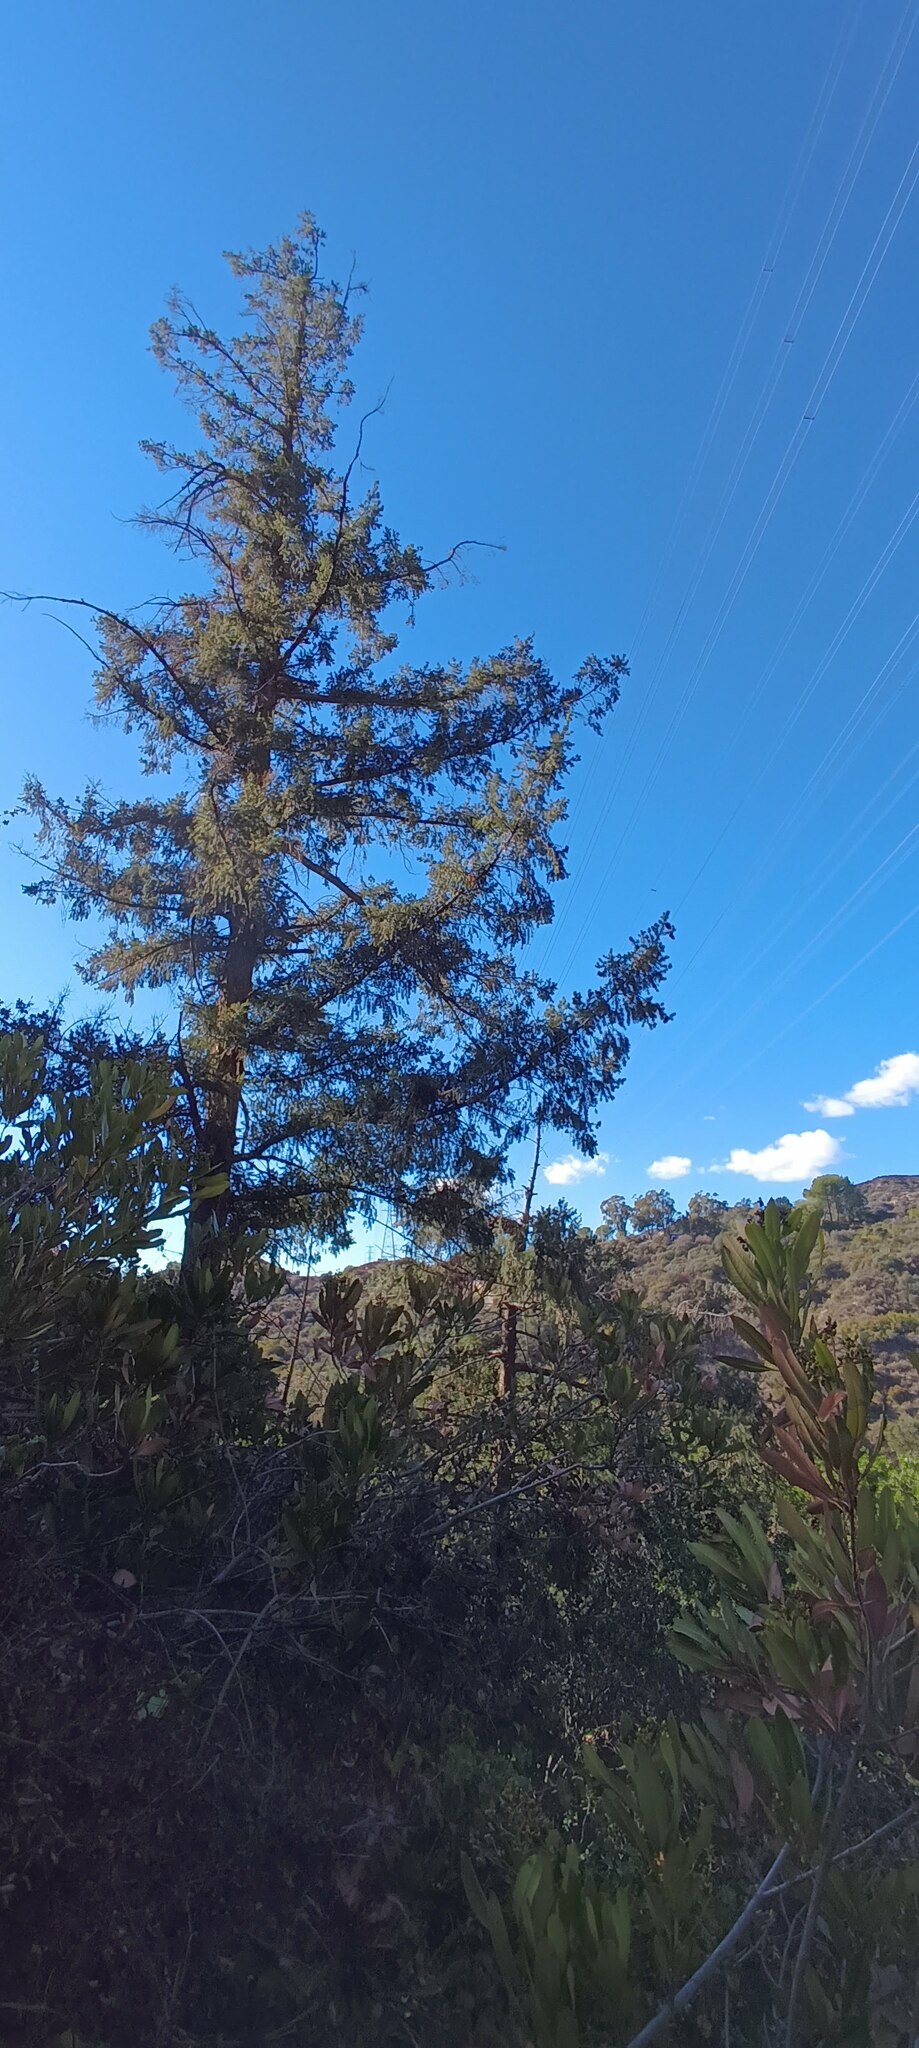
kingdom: Plantae
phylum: Tracheophyta
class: Pinopsida
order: Pinales
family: Pinaceae
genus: Pseudotsuga
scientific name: Pseudotsuga macrocarpa
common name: Big-cone douglas-fir
